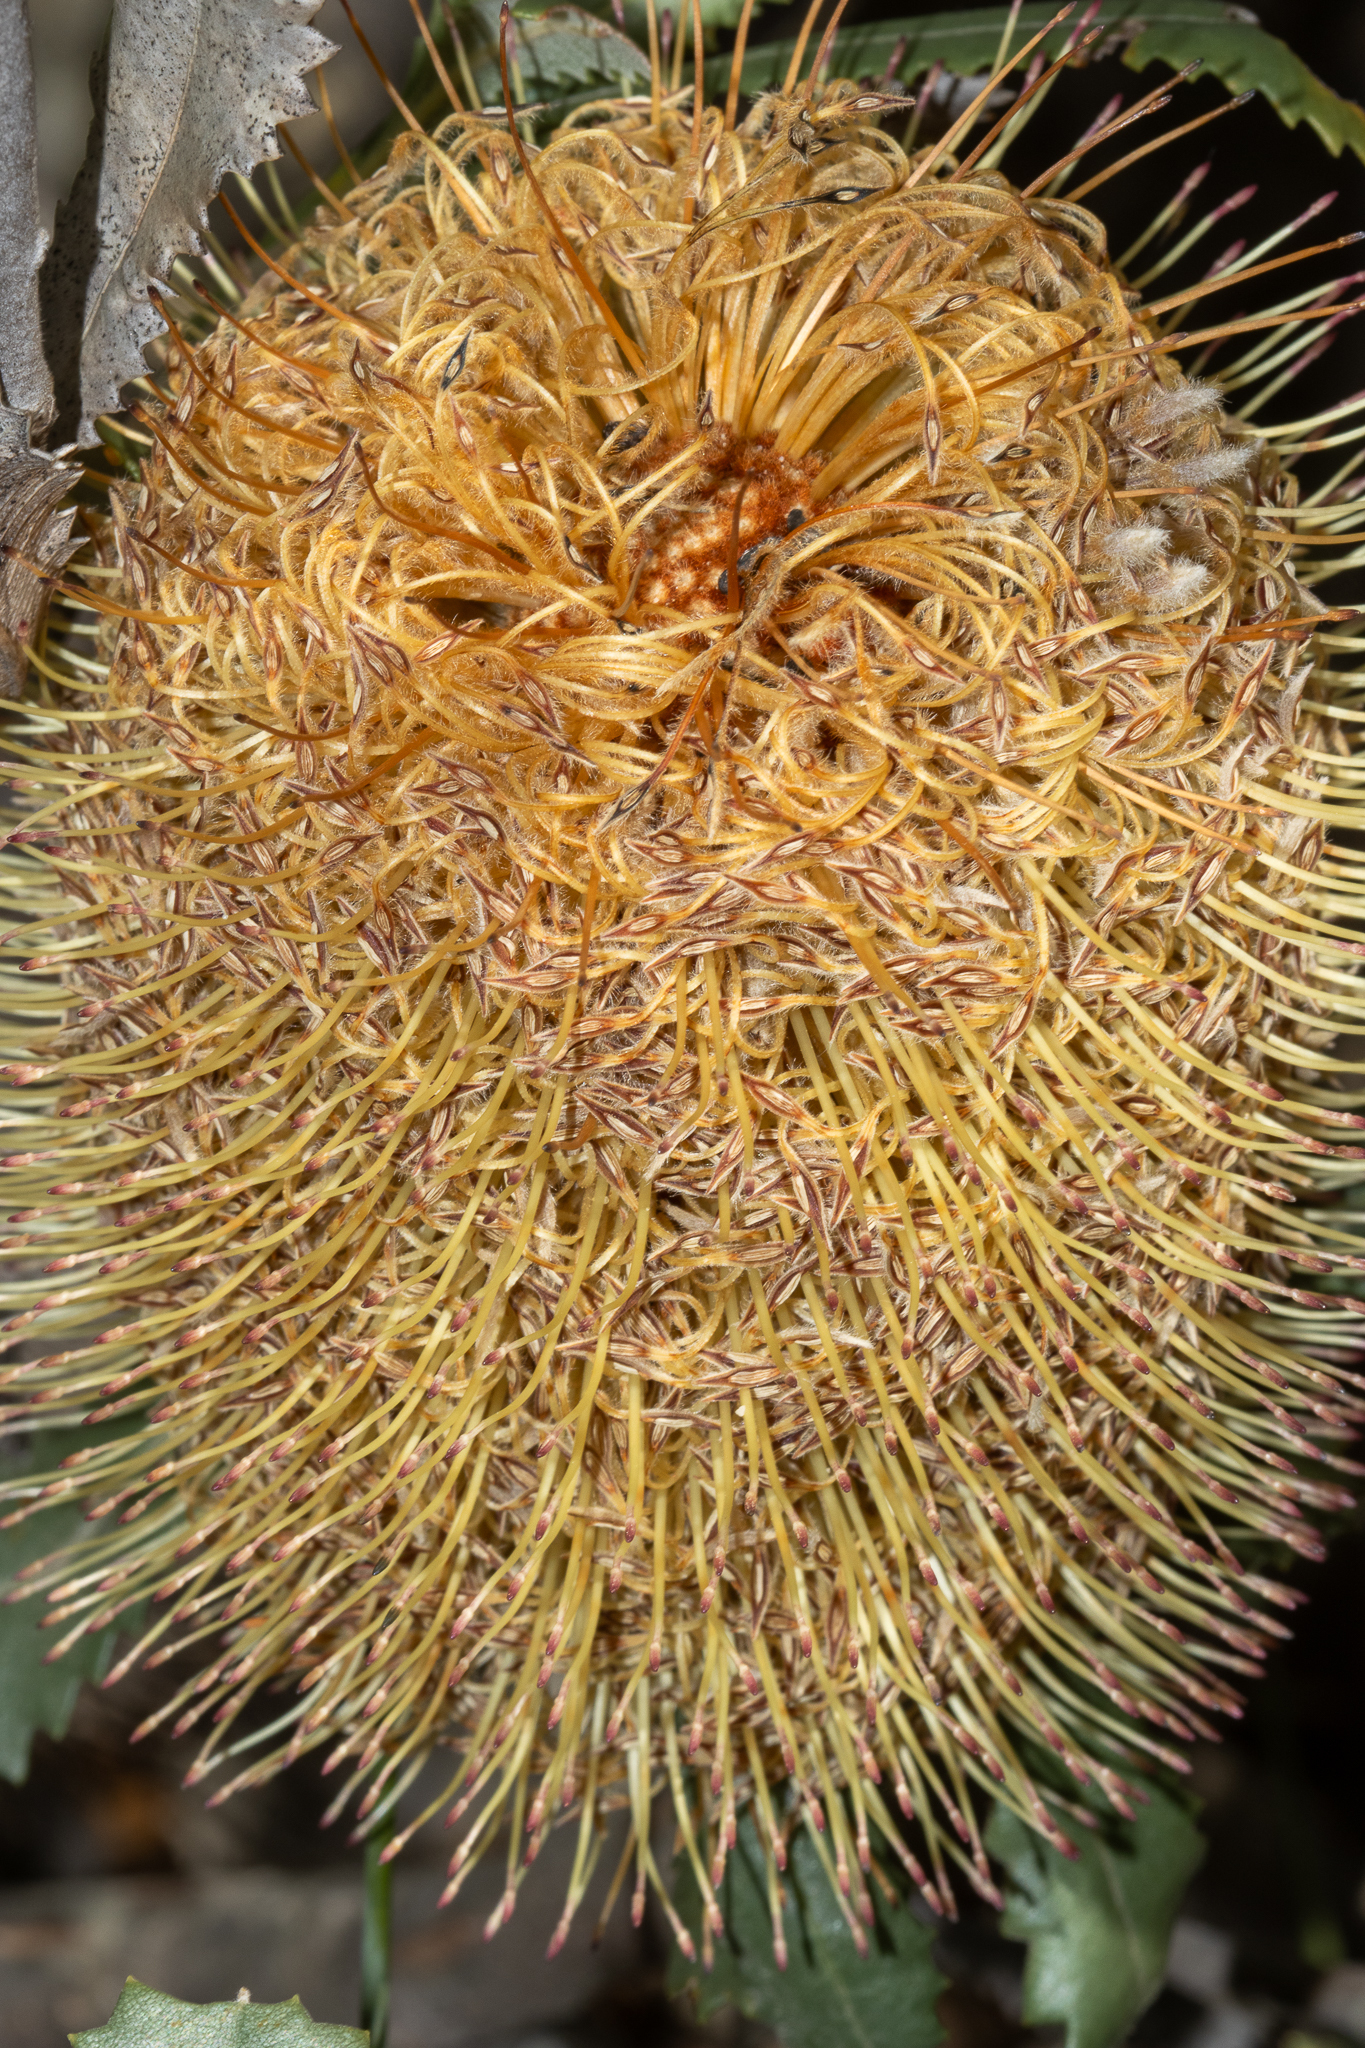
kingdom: Plantae
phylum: Tracheophyta
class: Magnoliopsida
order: Proteales
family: Proteaceae
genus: Banksia
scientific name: Banksia ornata
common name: Desert banksia
